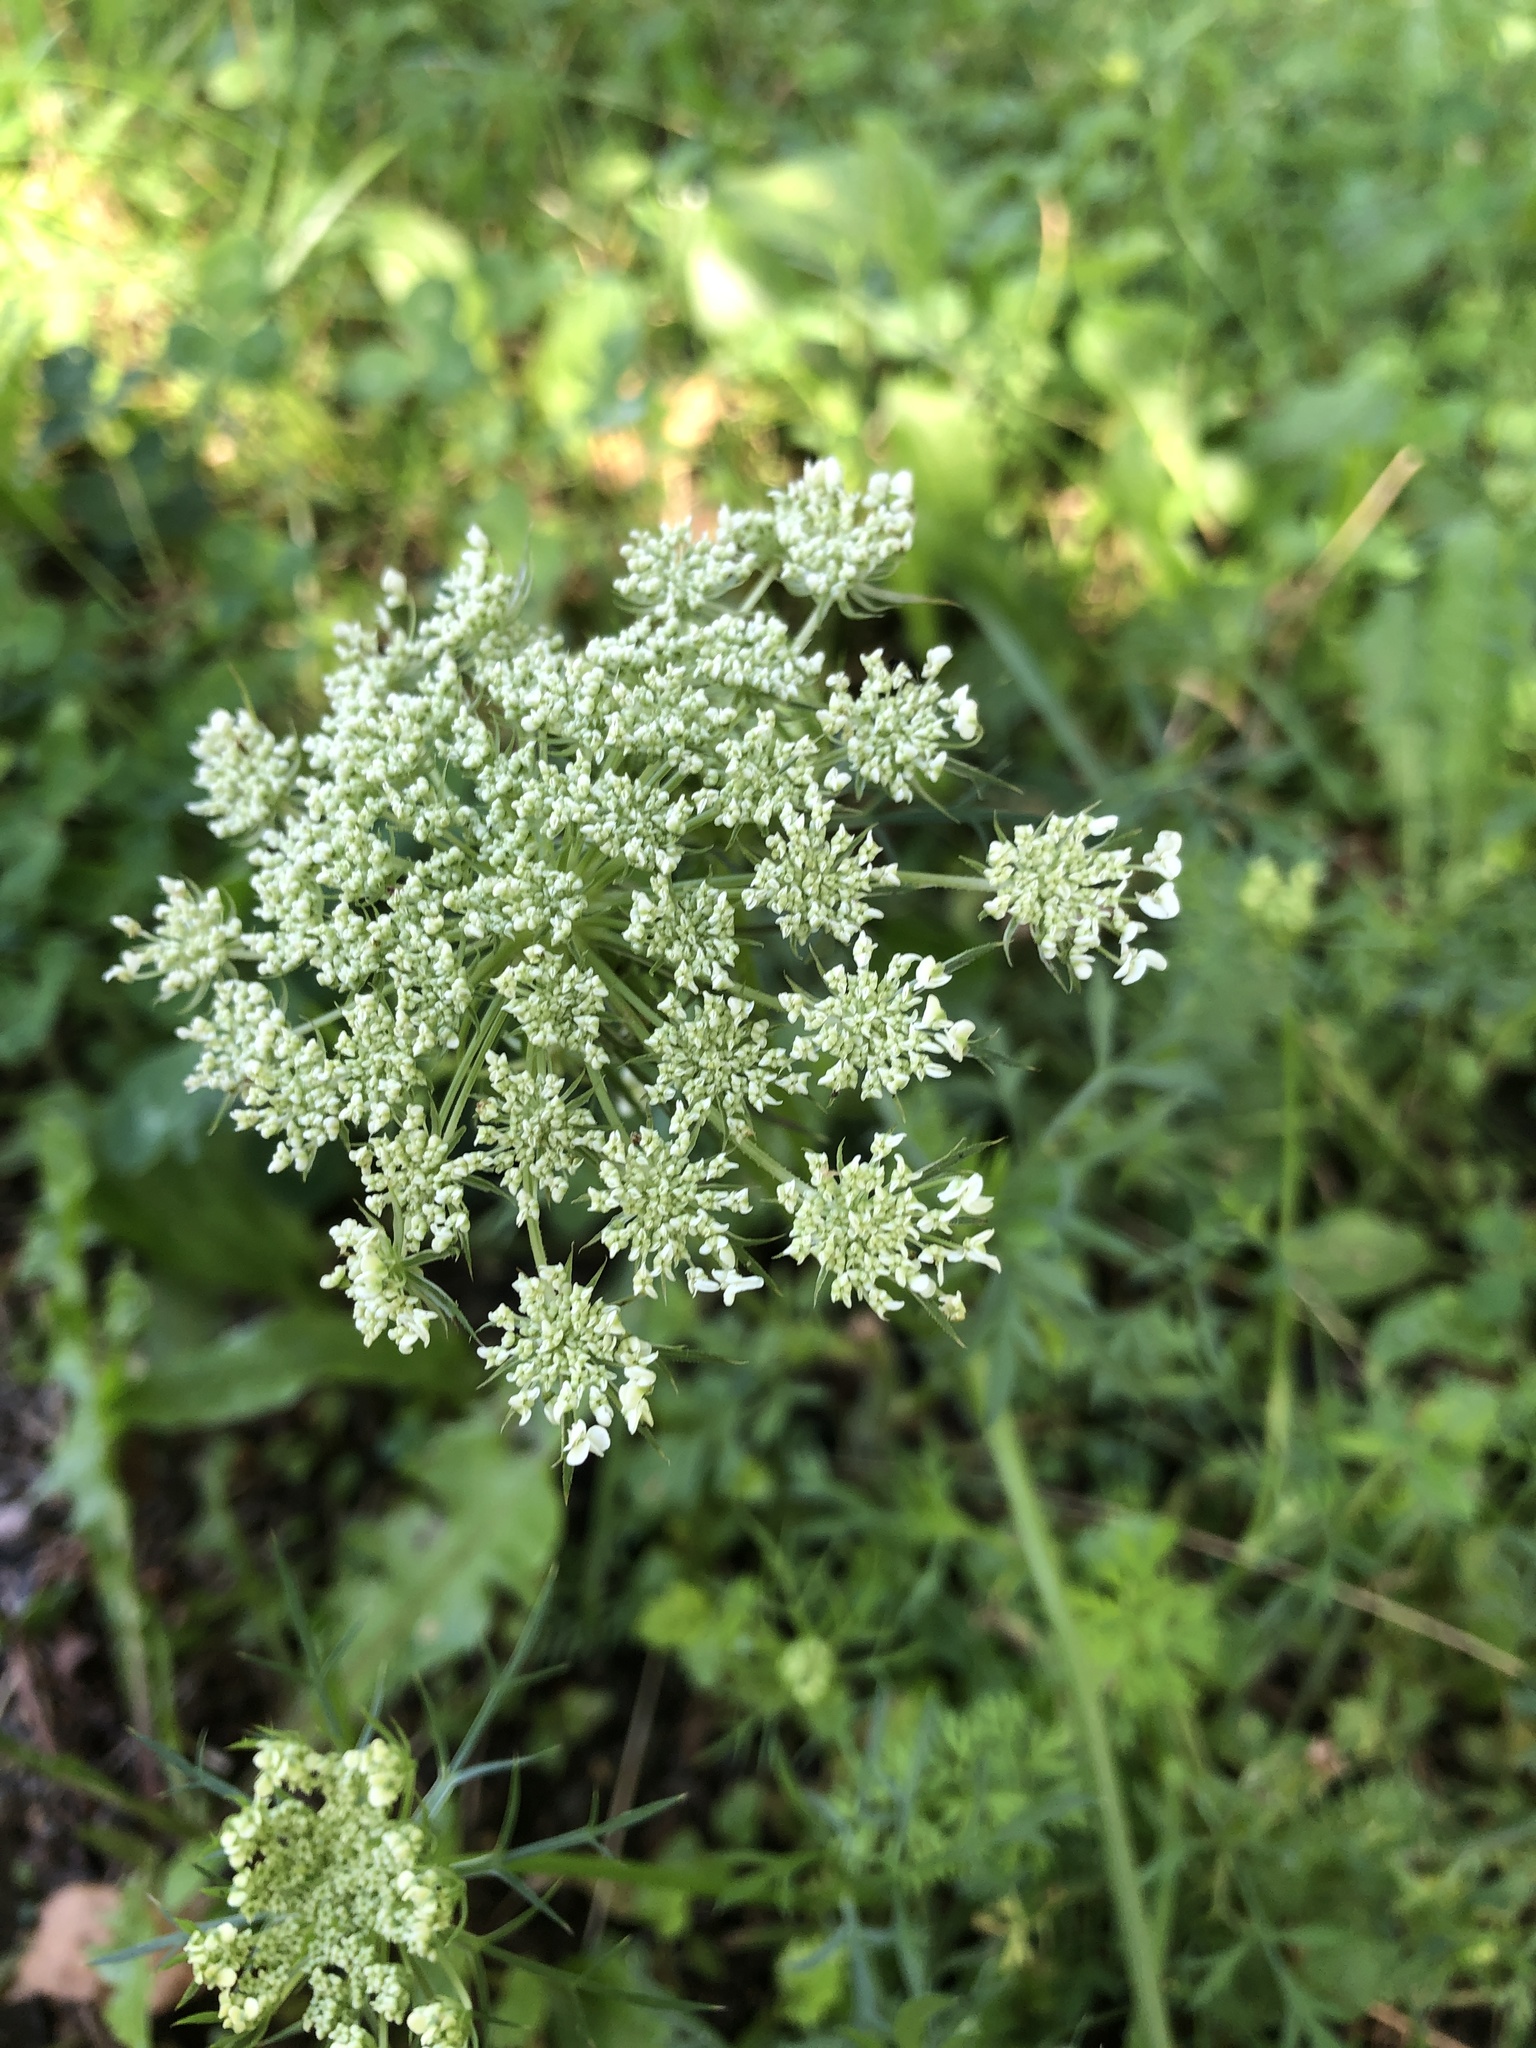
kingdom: Plantae
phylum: Tracheophyta
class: Magnoliopsida
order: Apiales
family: Apiaceae
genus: Daucus
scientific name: Daucus carota
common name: Wild carrot
